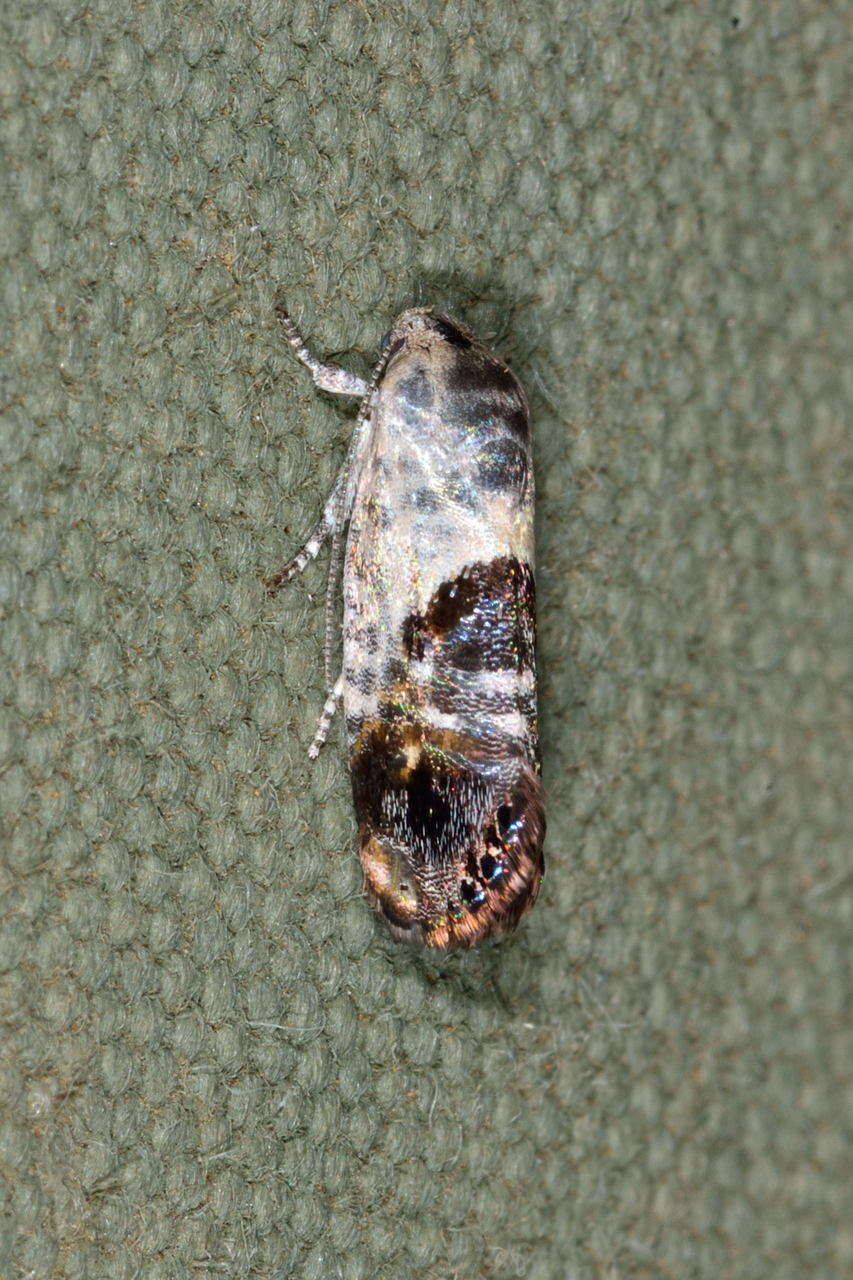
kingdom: Animalia
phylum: Arthropoda
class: Insecta
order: Lepidoptera
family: Depressariidae
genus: Eupselia
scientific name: Eupselia carpocapsella
